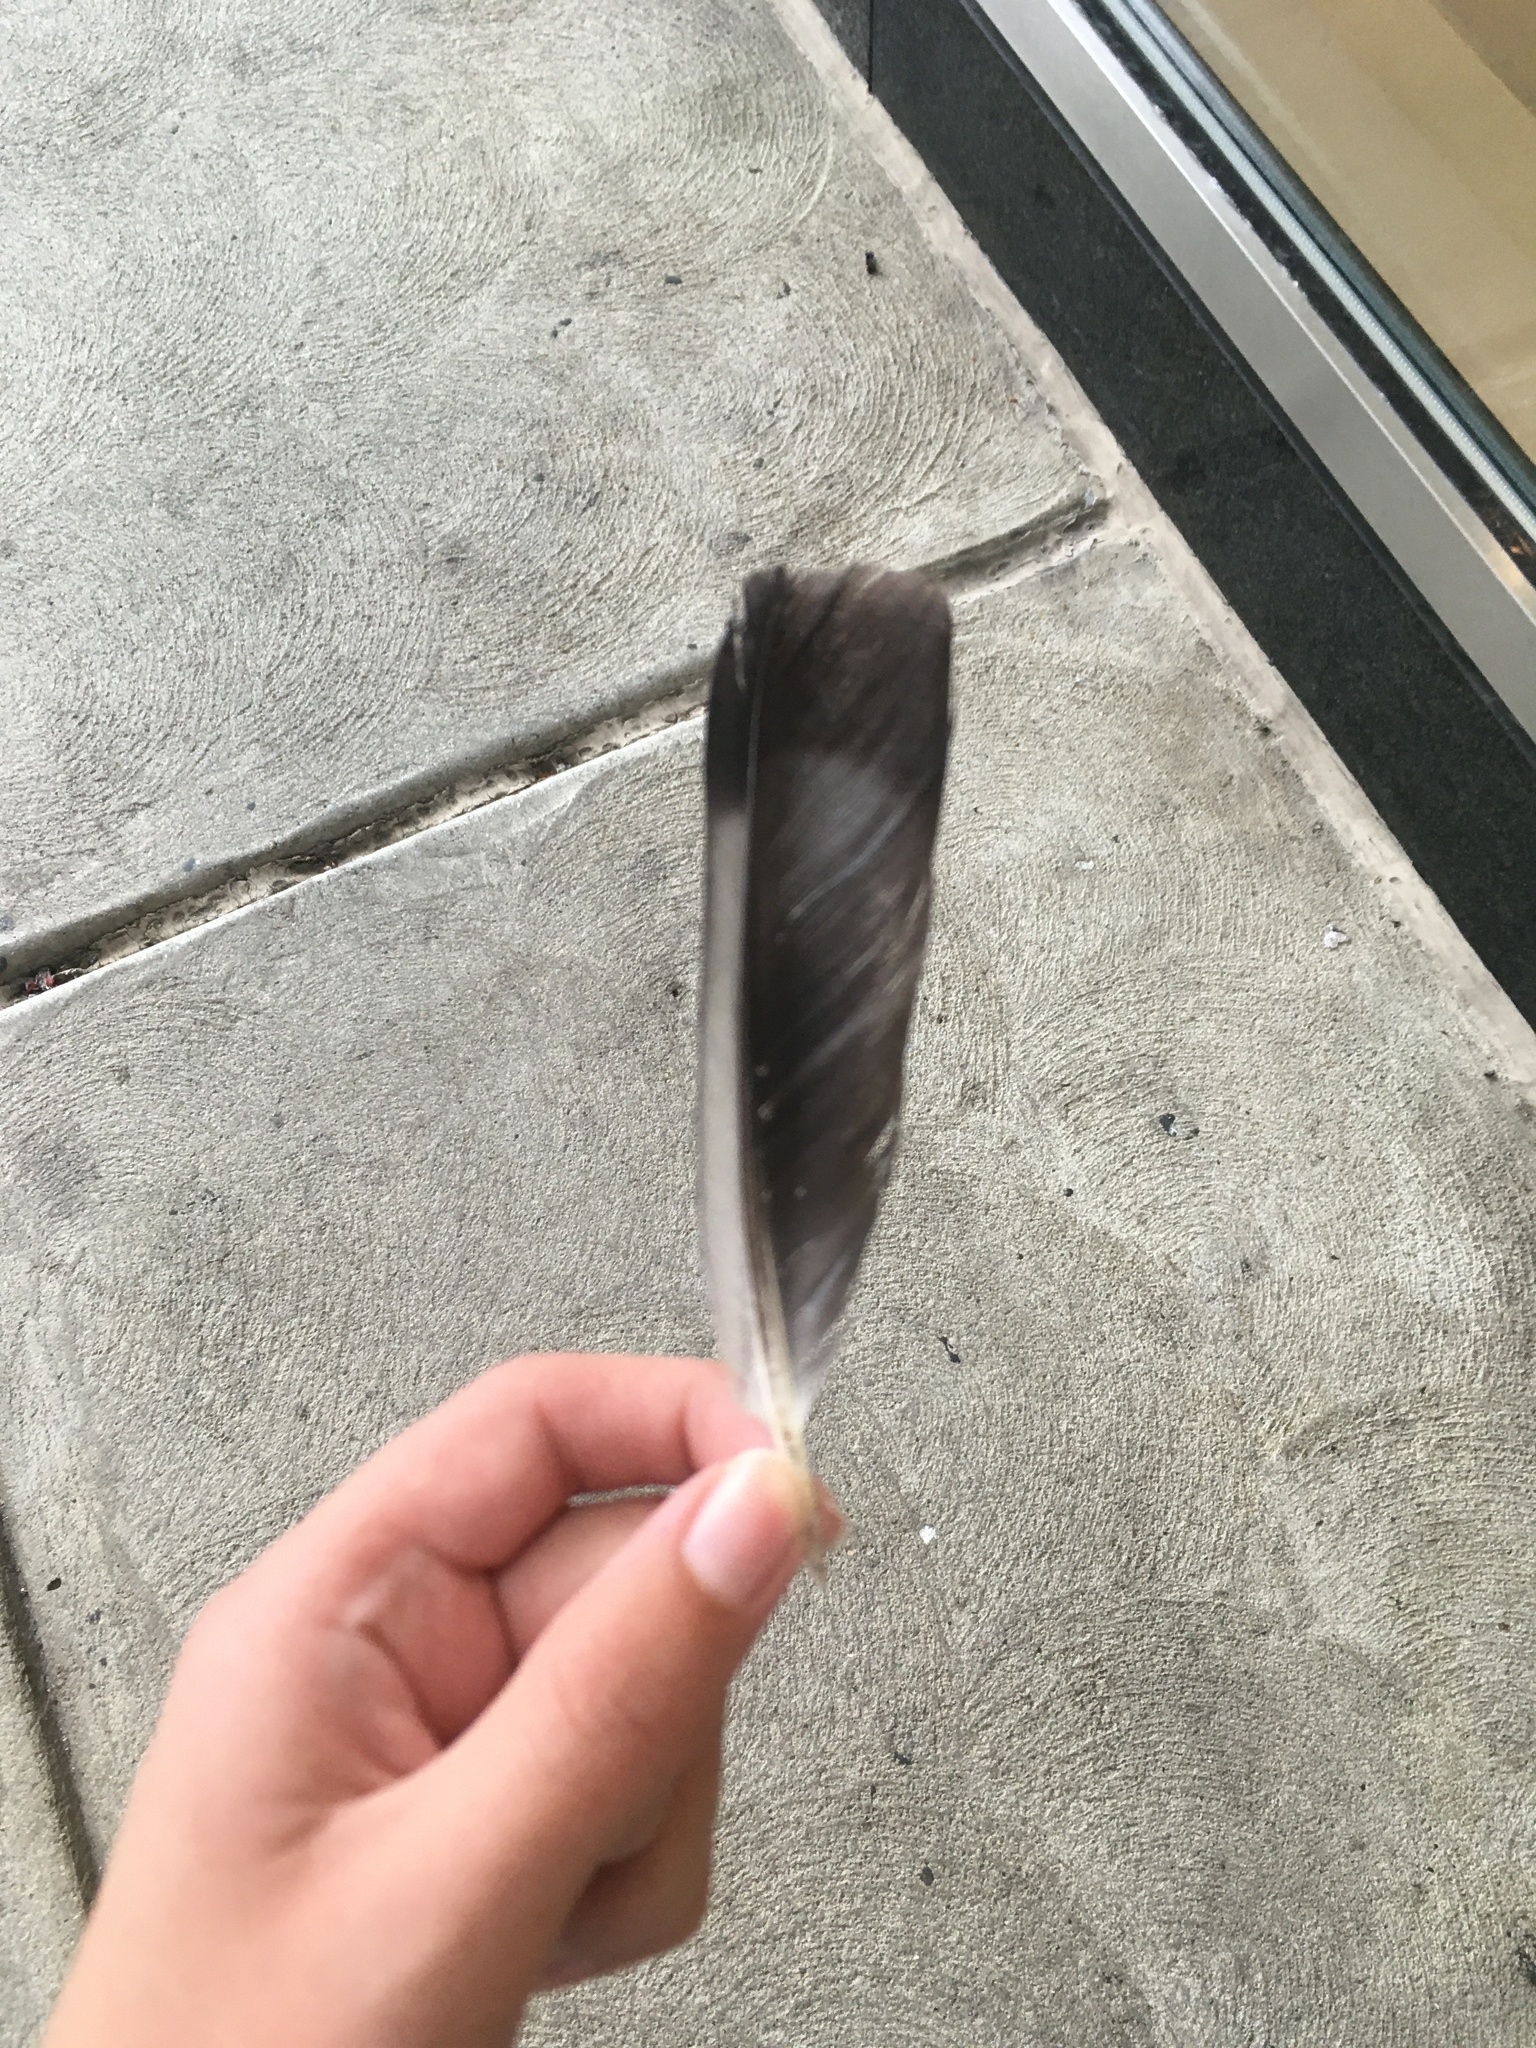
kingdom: Animalia
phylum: Chordata
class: Aves
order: Columbiformes
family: Columbidae
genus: Columba
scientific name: Columba livia
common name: Rock pigeon
